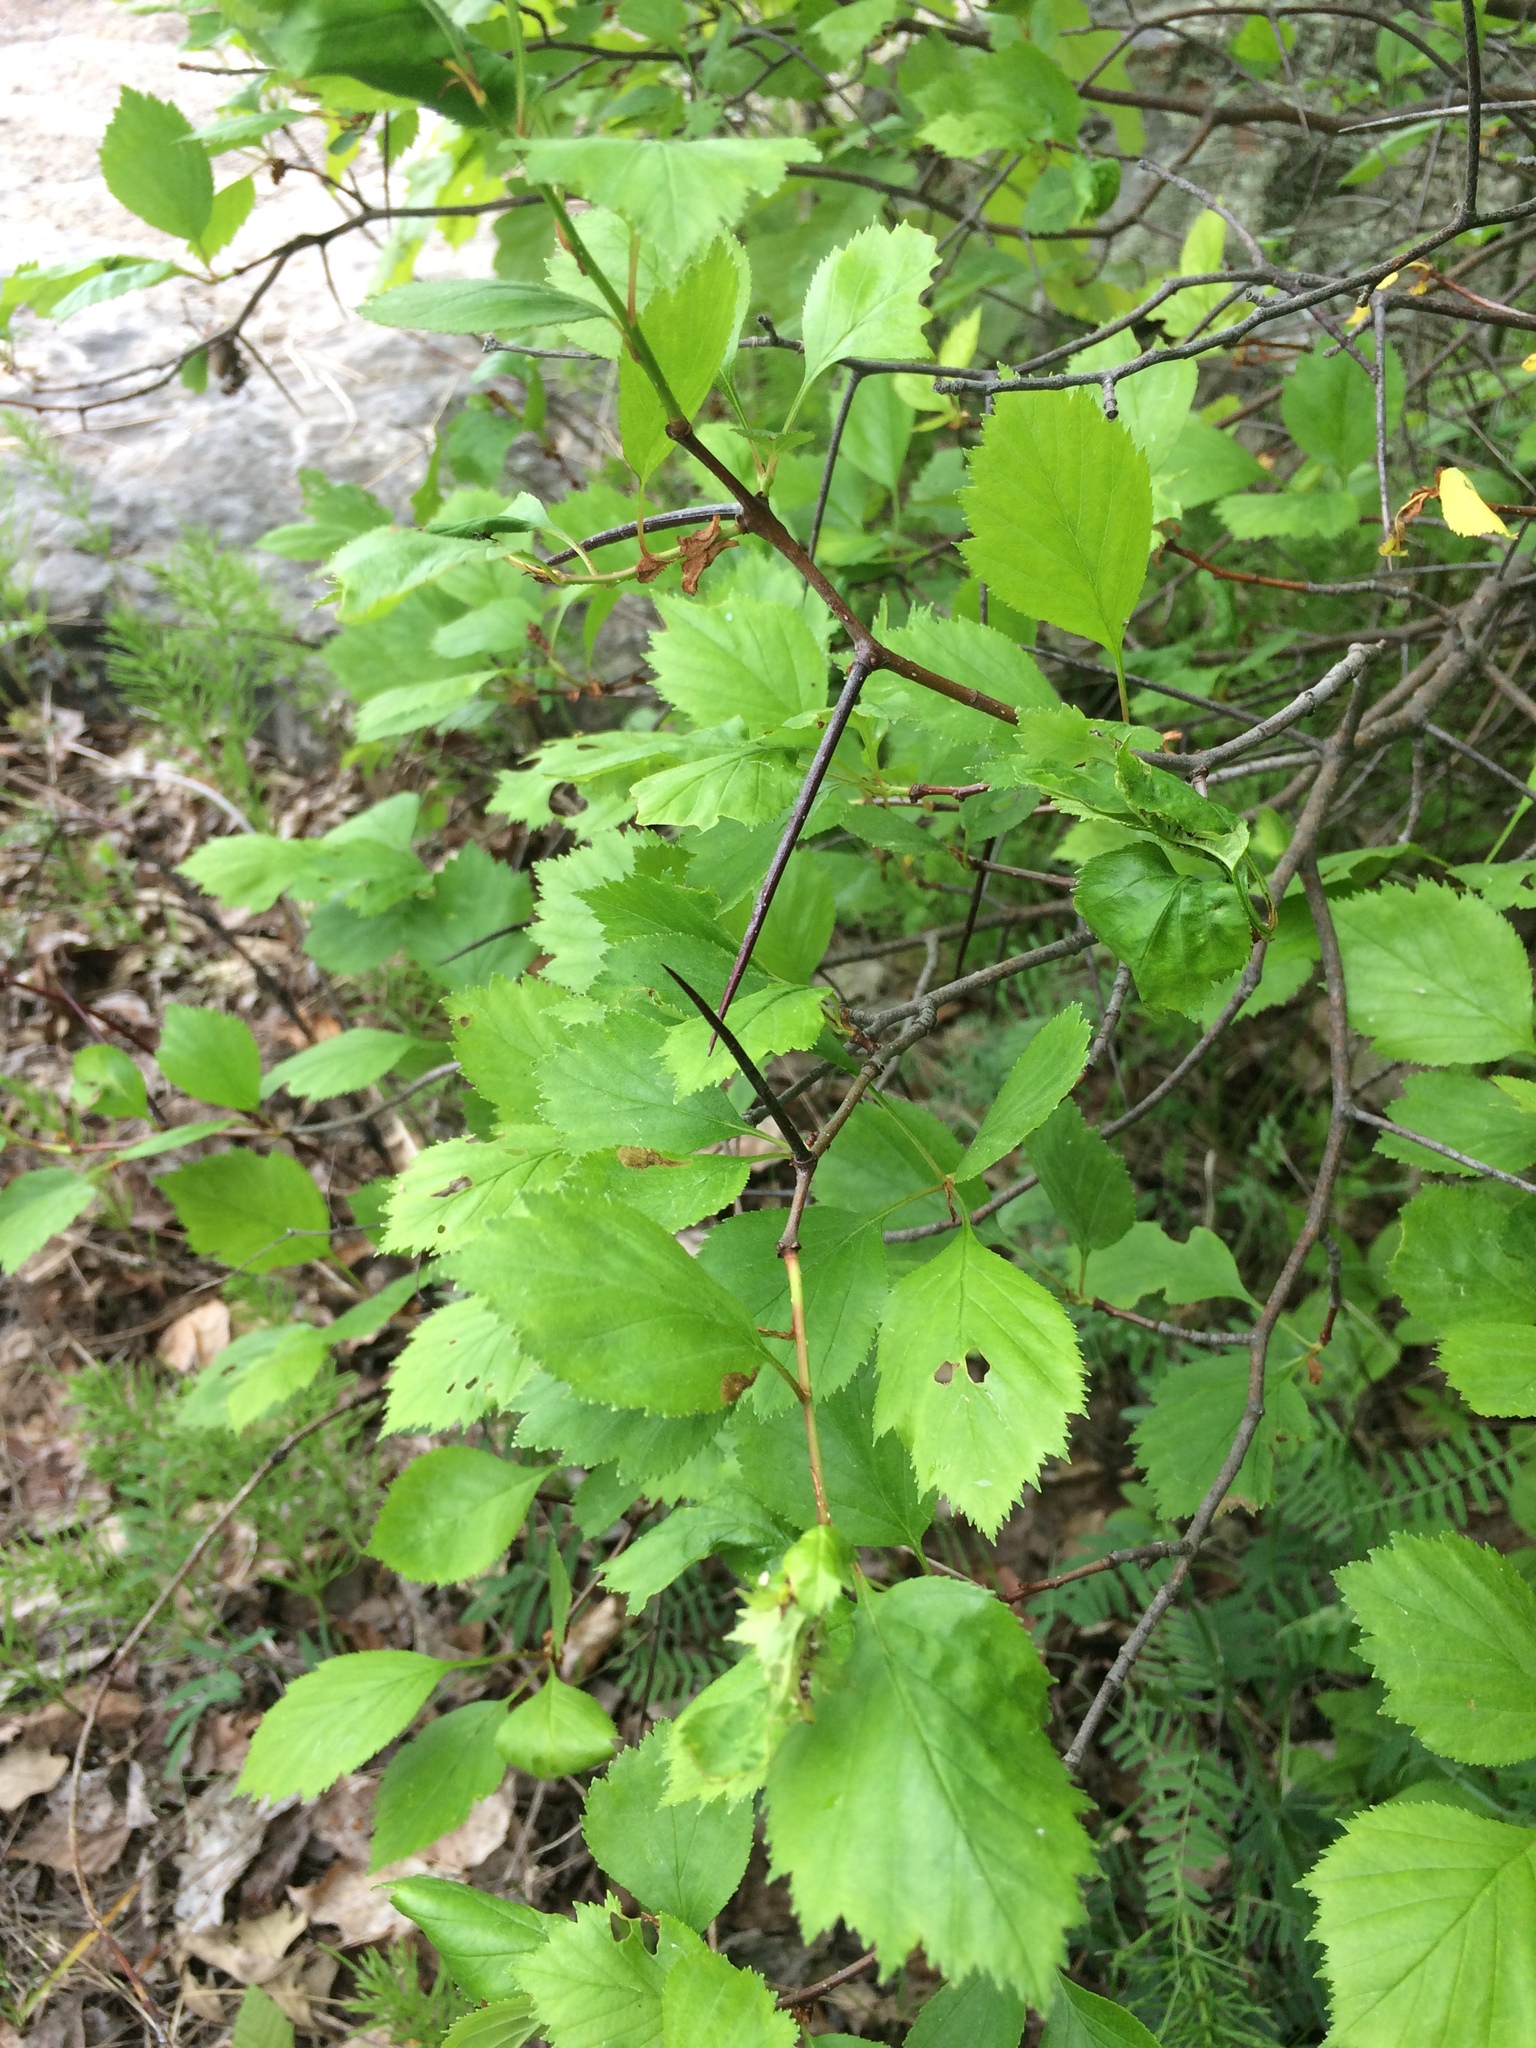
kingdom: Plantae
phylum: Tracheophyta
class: Magnoliopsida
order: Rosales
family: Rosaceae
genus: Crataegus
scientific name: Crataegus chrysocarpa
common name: Fire-berry hawthorn
